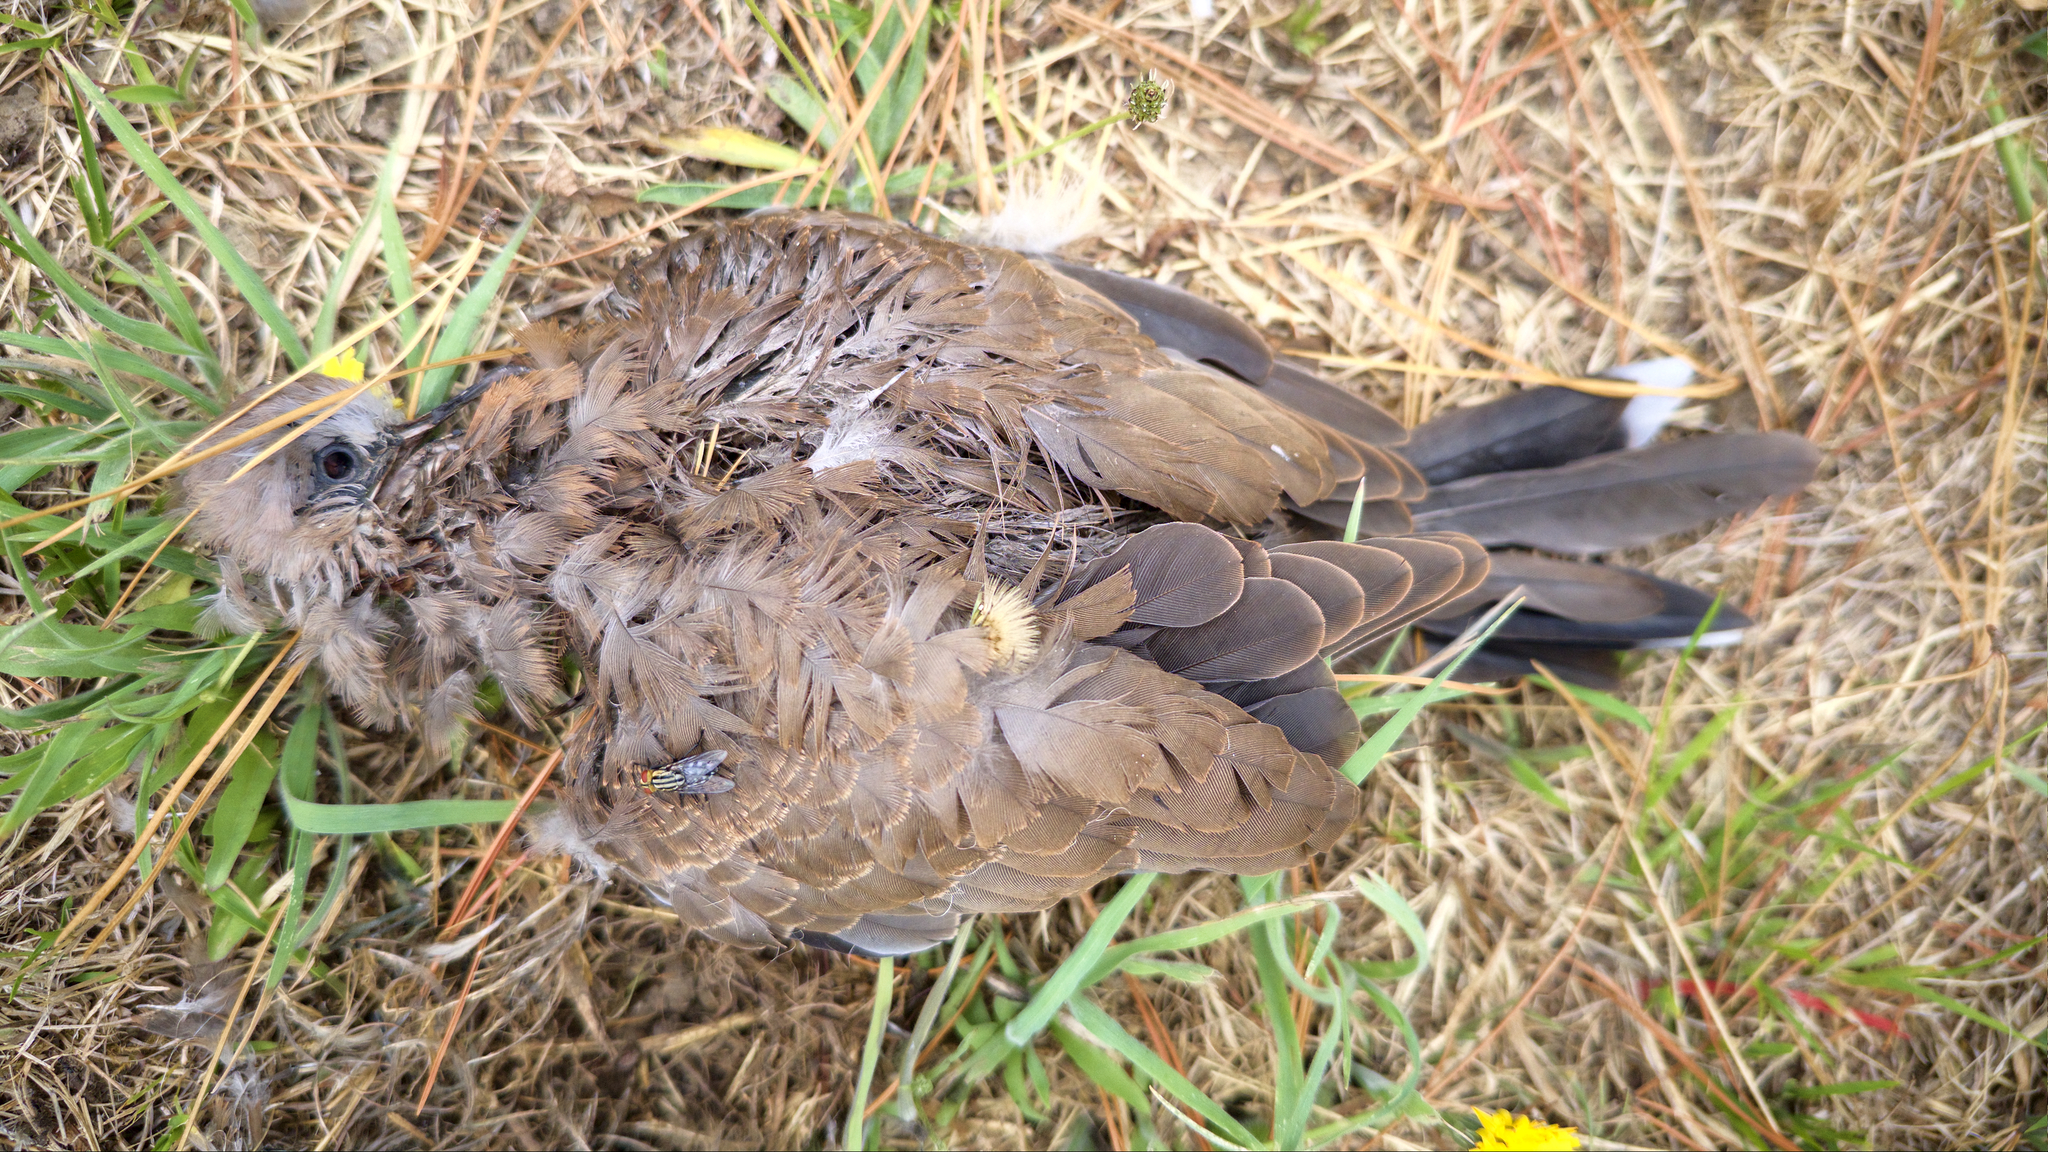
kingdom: Animalia
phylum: Chordata
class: Aves
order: Columbiformes
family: Columbidae
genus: Spilopelia
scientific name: Spilopelia chinensis
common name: Spotted dove
